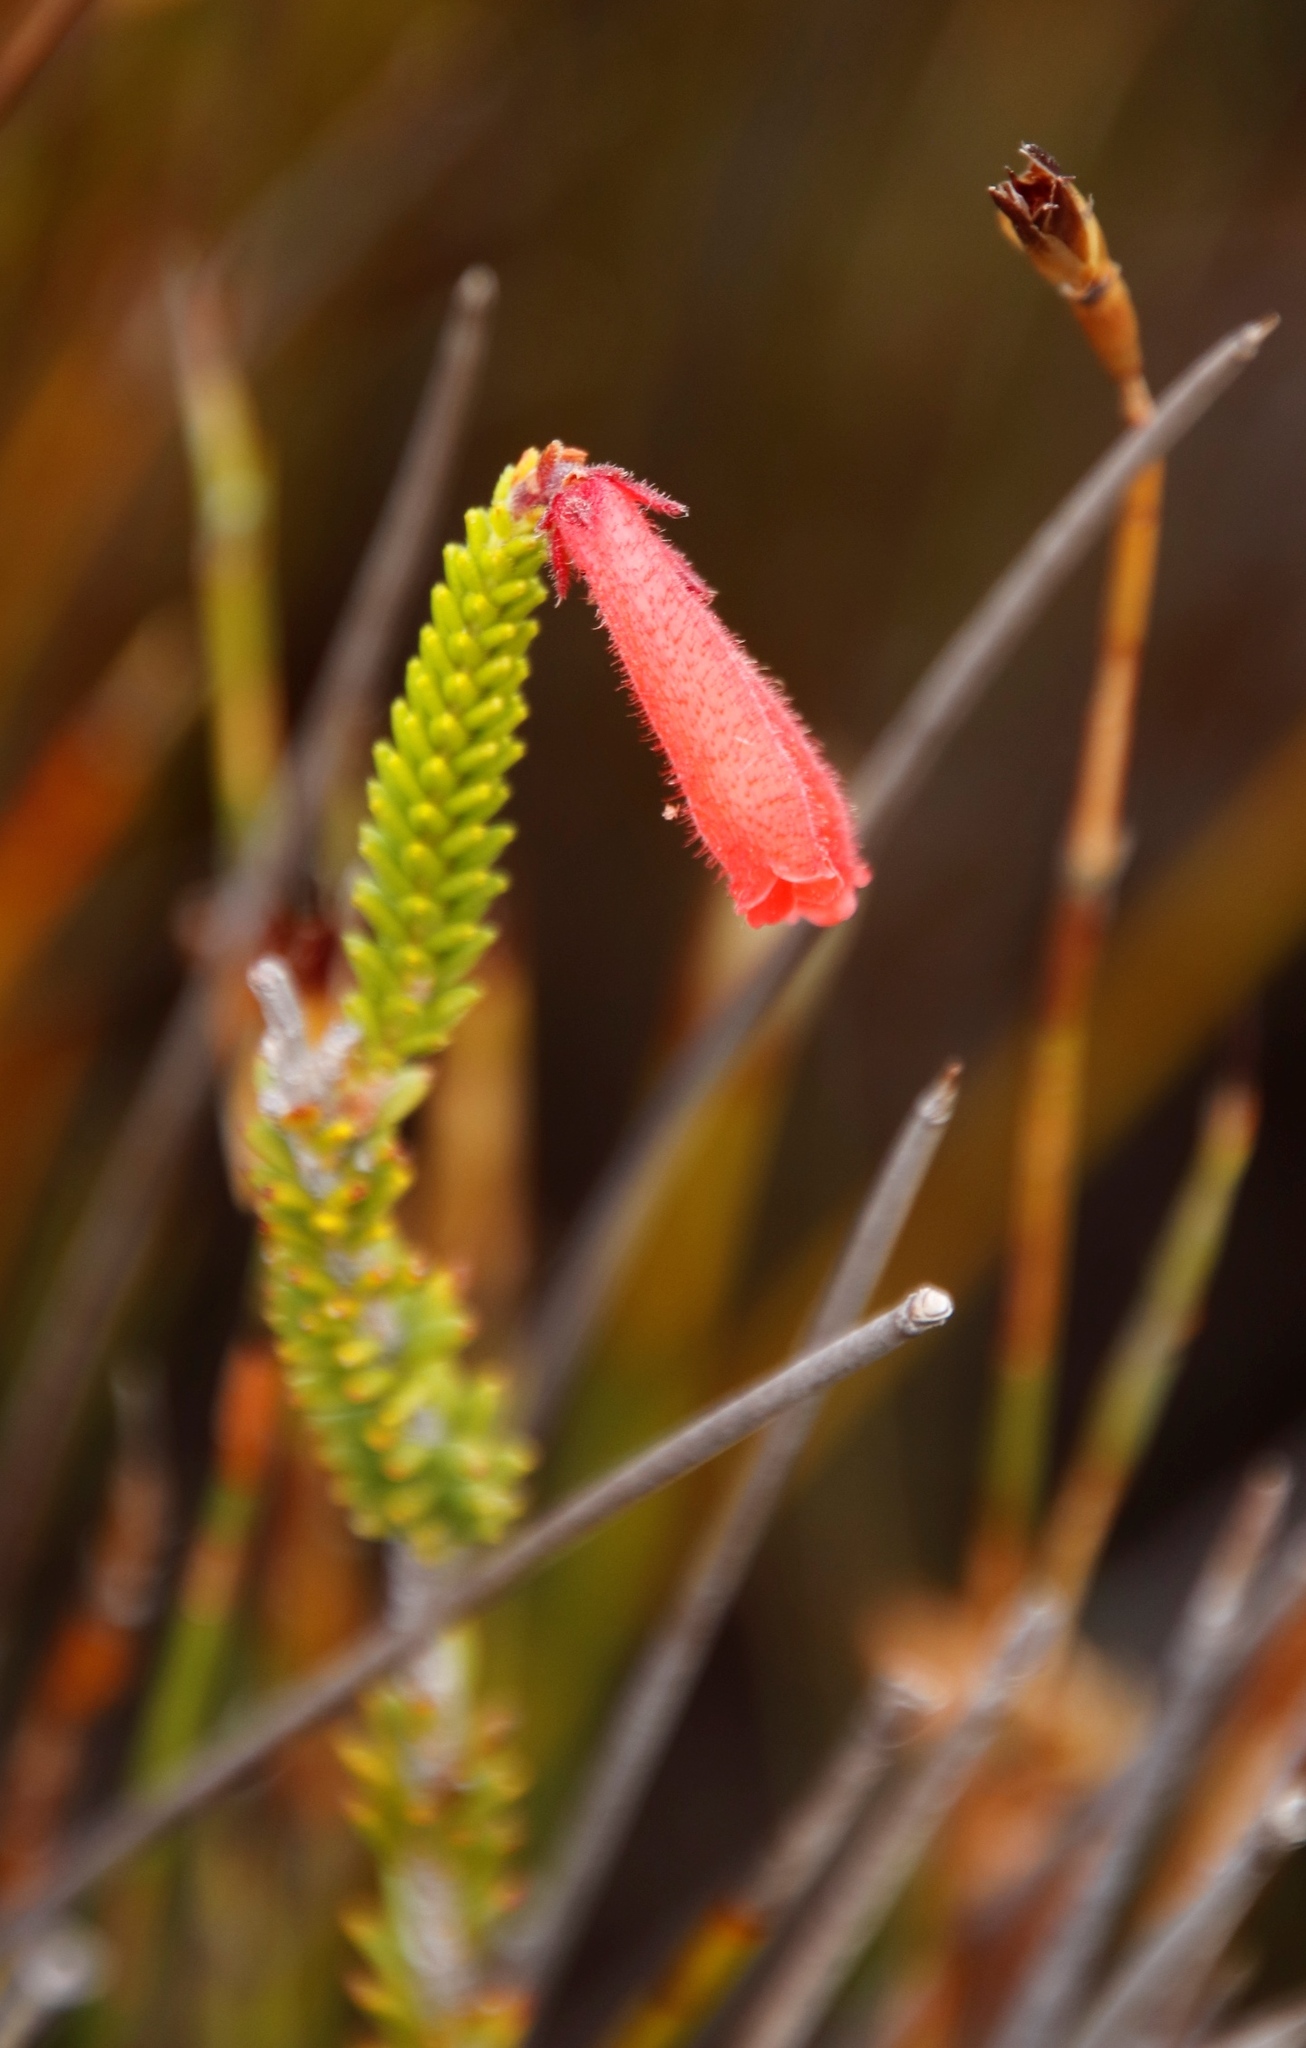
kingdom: Plantae
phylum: Tracheophyta
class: Magnoliopsida
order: Ericales
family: Ericaceae
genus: Erica
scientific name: Erica cerinthoides
